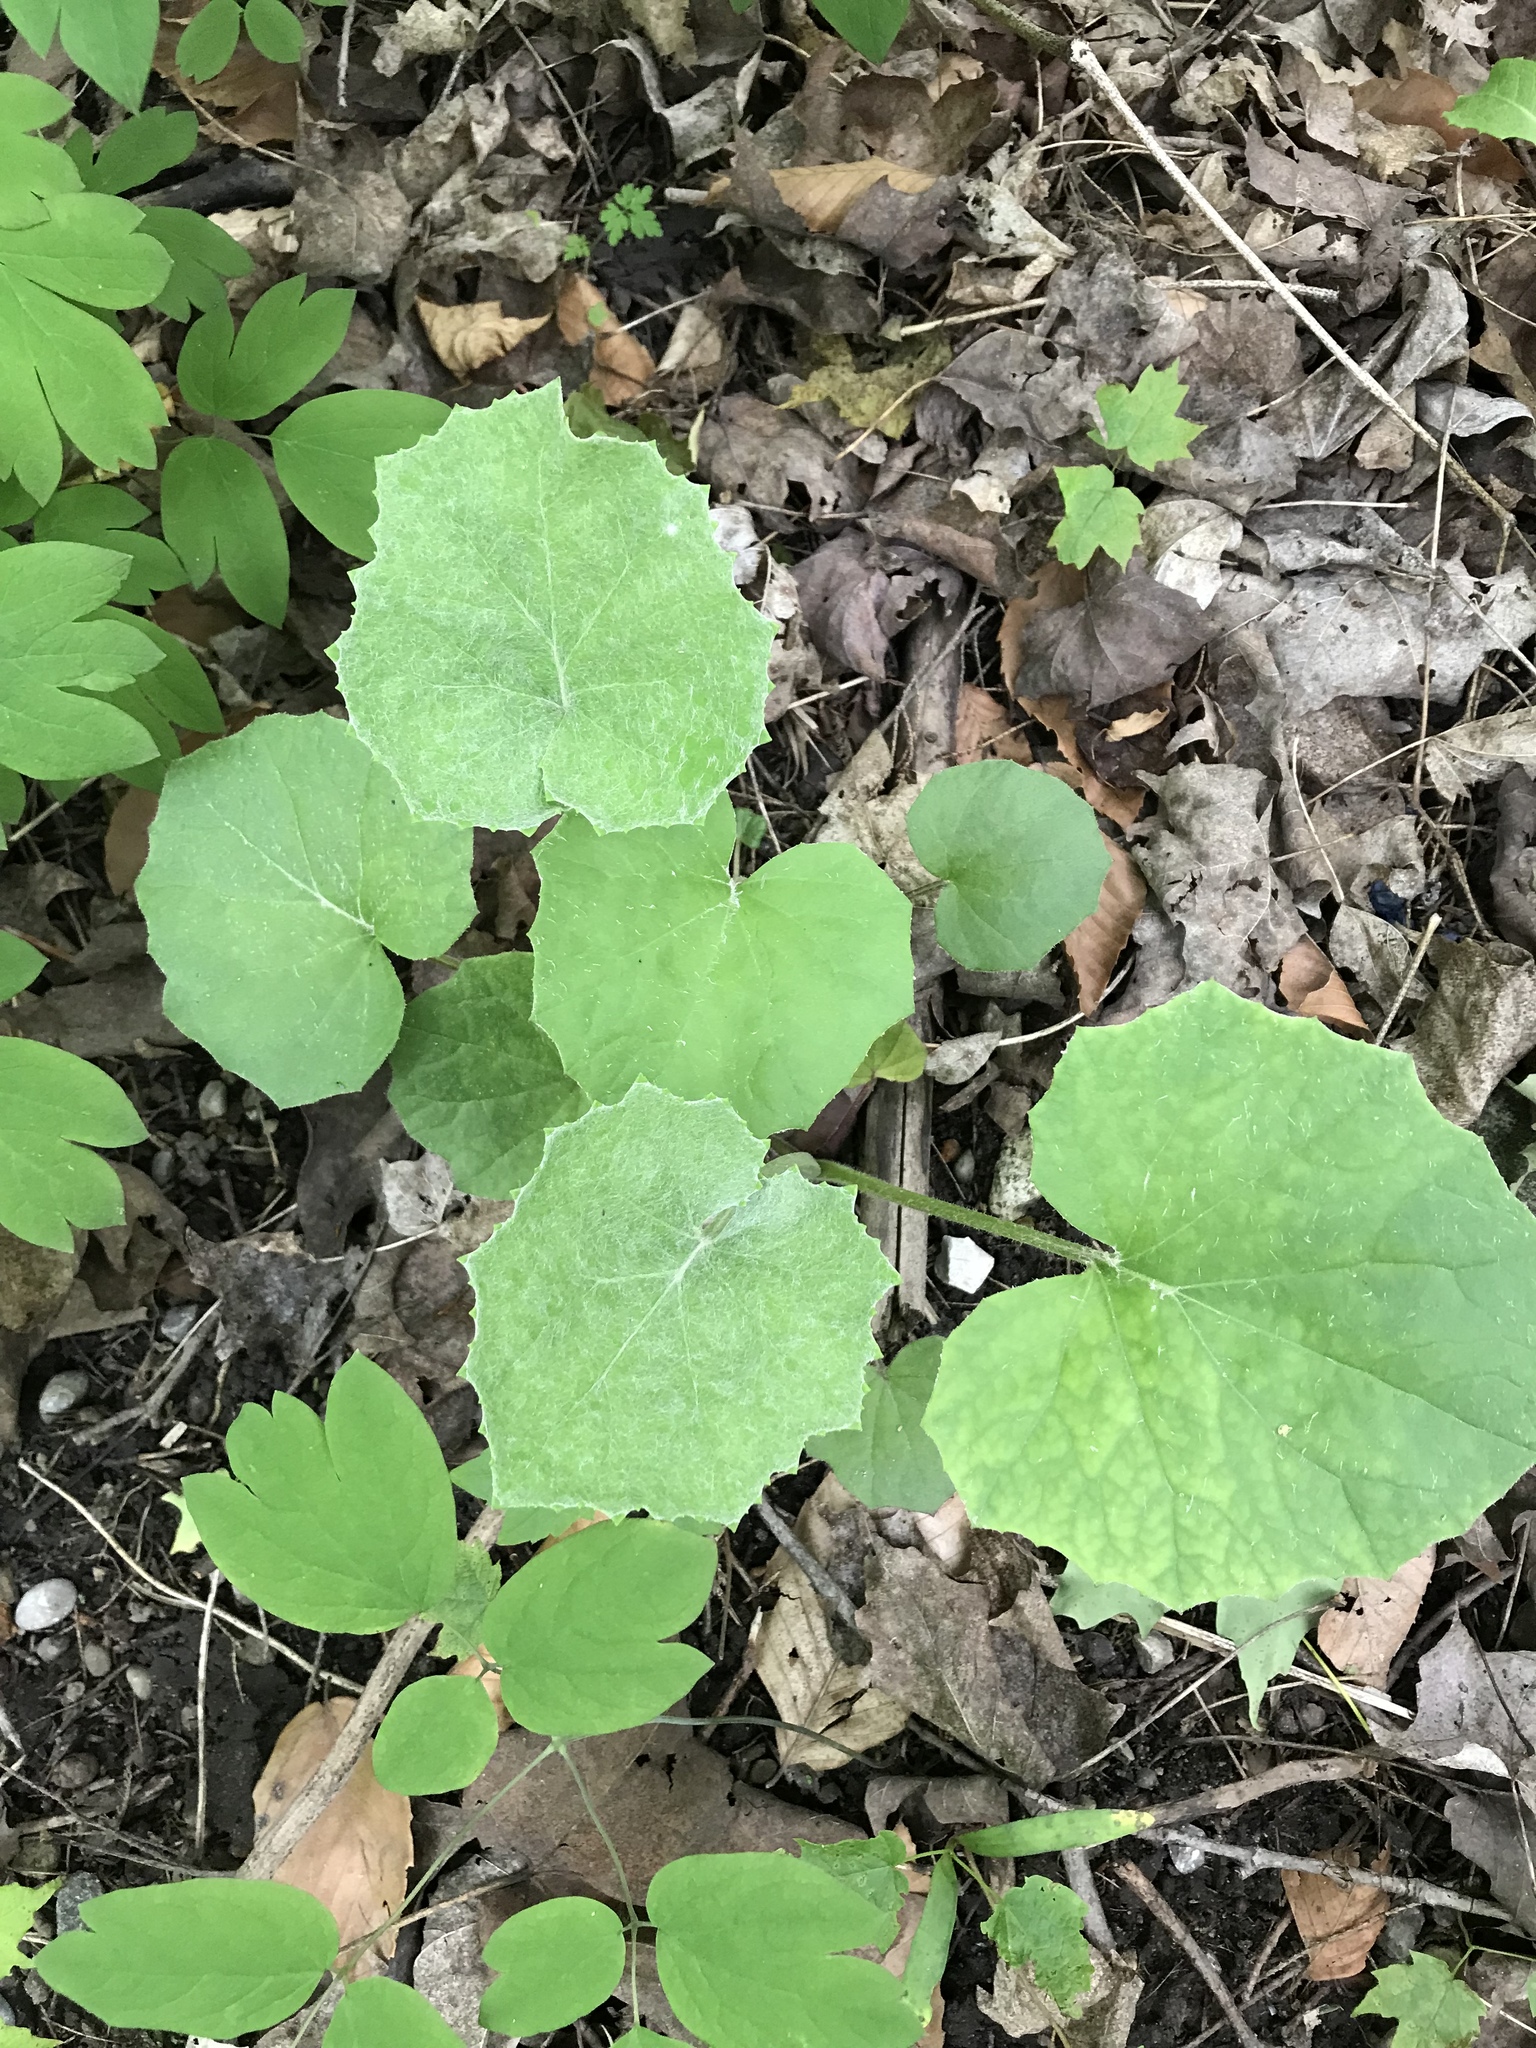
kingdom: Plantae
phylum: Tracheophyta
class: Magnoliopsida
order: Asterales
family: Asteraceae
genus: Tussilago
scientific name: Tussilago farfara
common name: Coltsfoot
